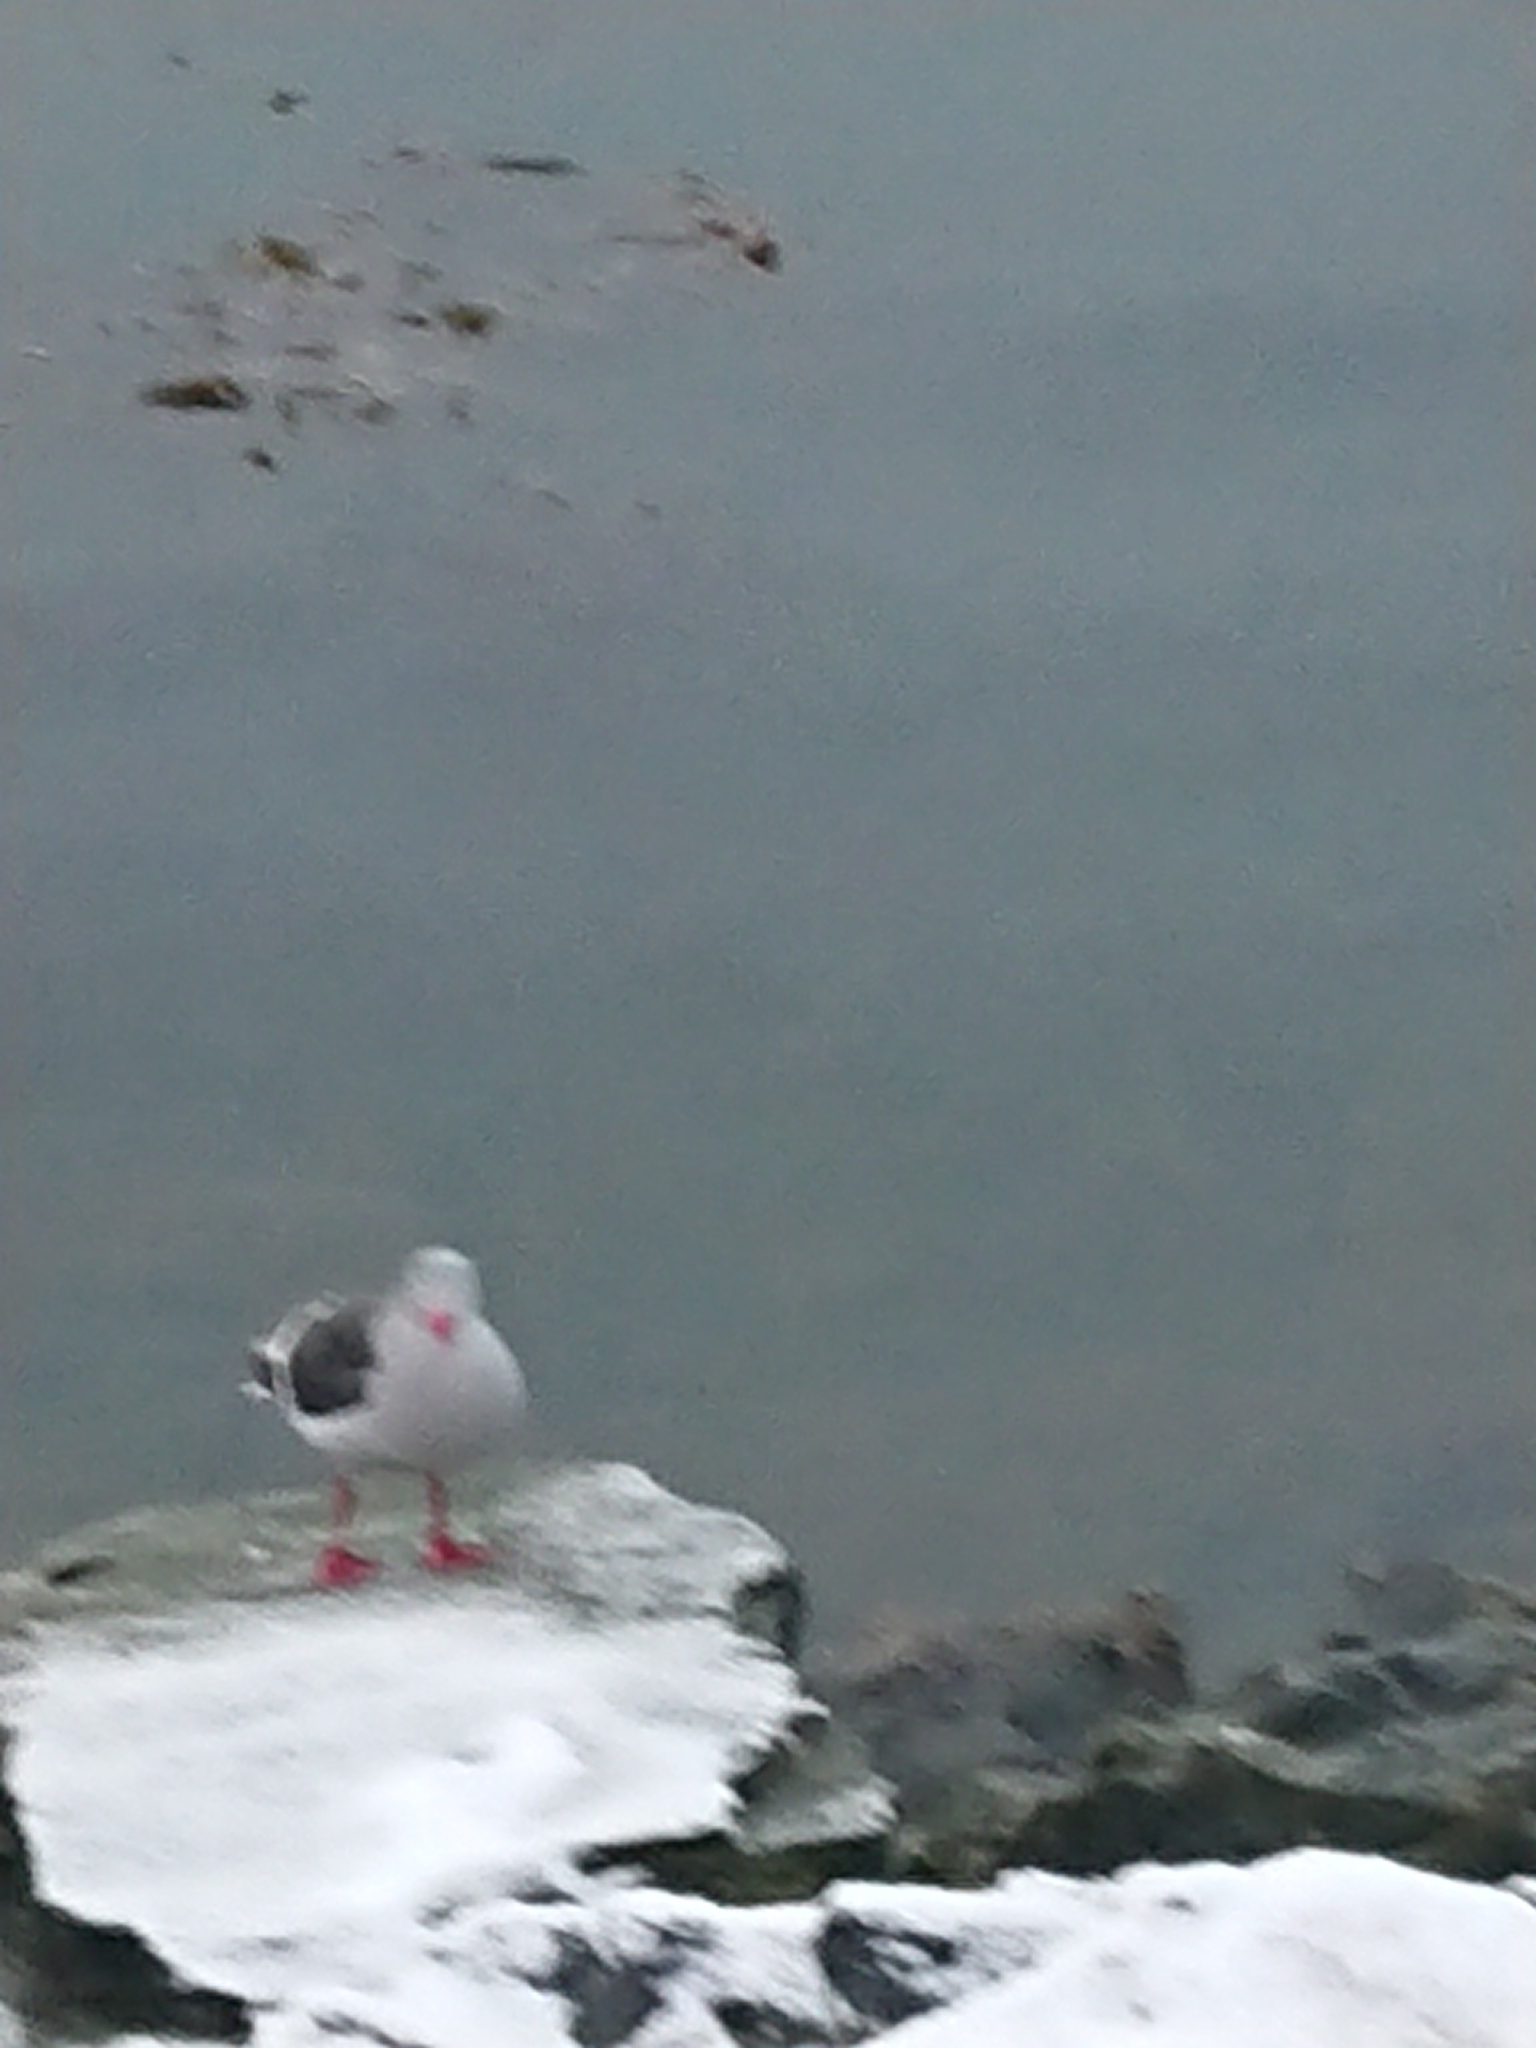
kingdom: Animalia
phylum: Chordata
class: Aves
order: Charadriiformes
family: Laridae
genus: Leucophaeus
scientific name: Leucophaeus scoresbii
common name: Dolphin gull
